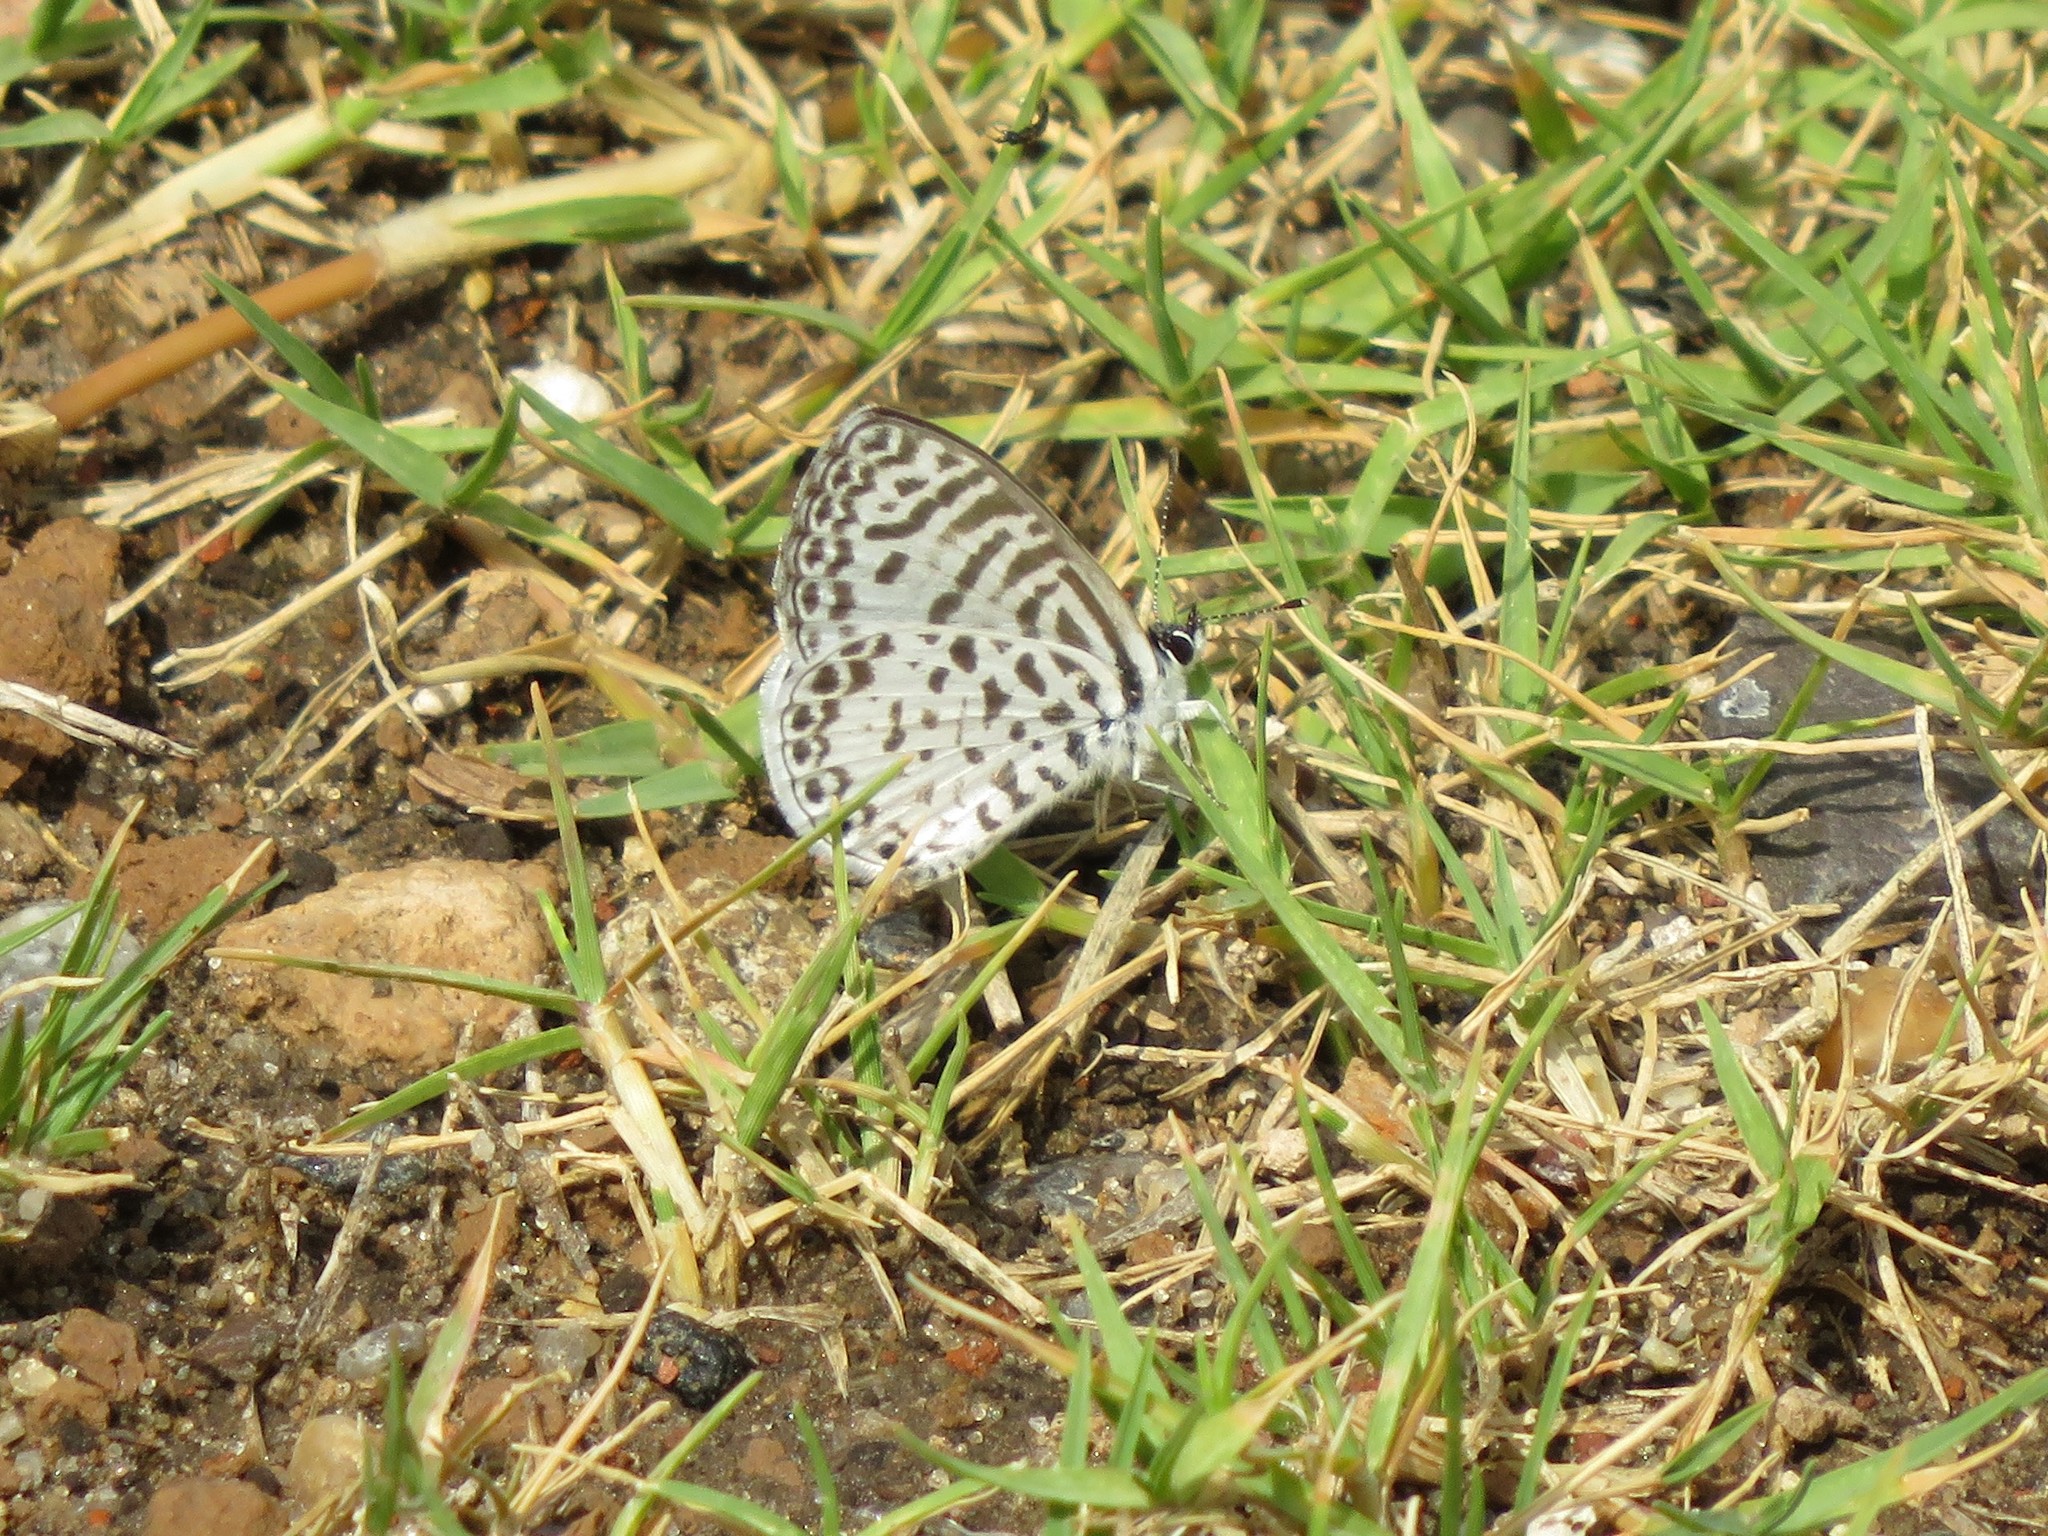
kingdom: Animalia
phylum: Arthropoda
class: Insecta
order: Lepidoptera
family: Lycaenidae
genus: Leptotes
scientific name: Leptotes cassius
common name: Cassius blue
